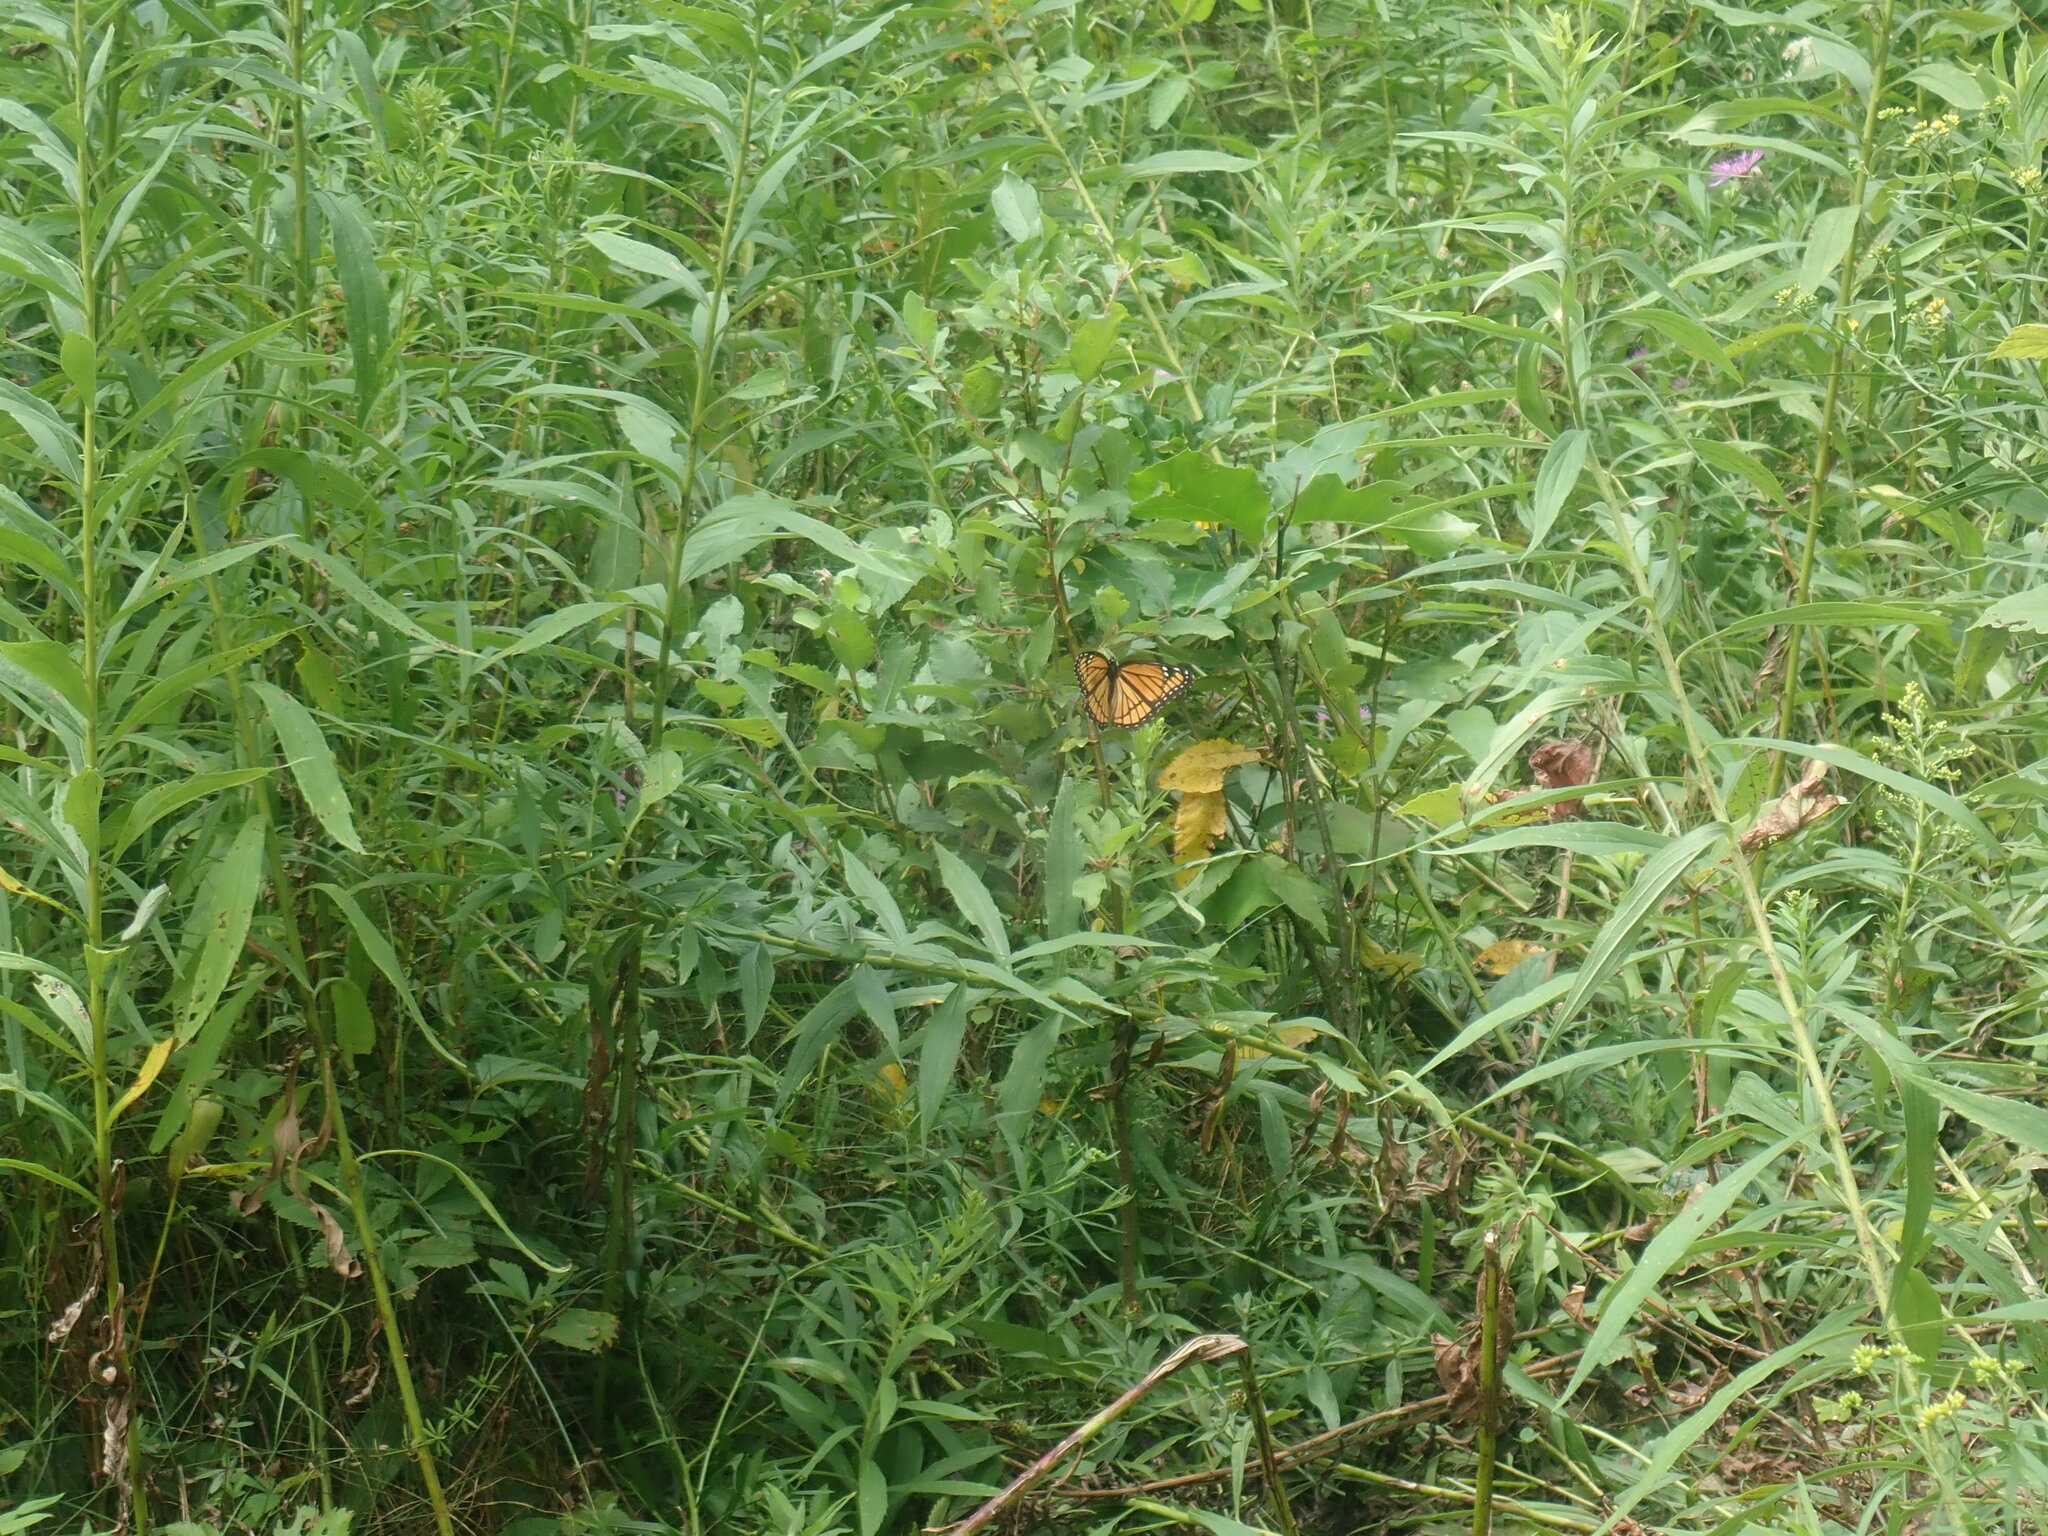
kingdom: Animalia
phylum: Arthropoda
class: Insecta
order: Lepidoptera
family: Nymphalidae
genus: Limenitis
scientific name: Limenitis archippus
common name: Viceroy
